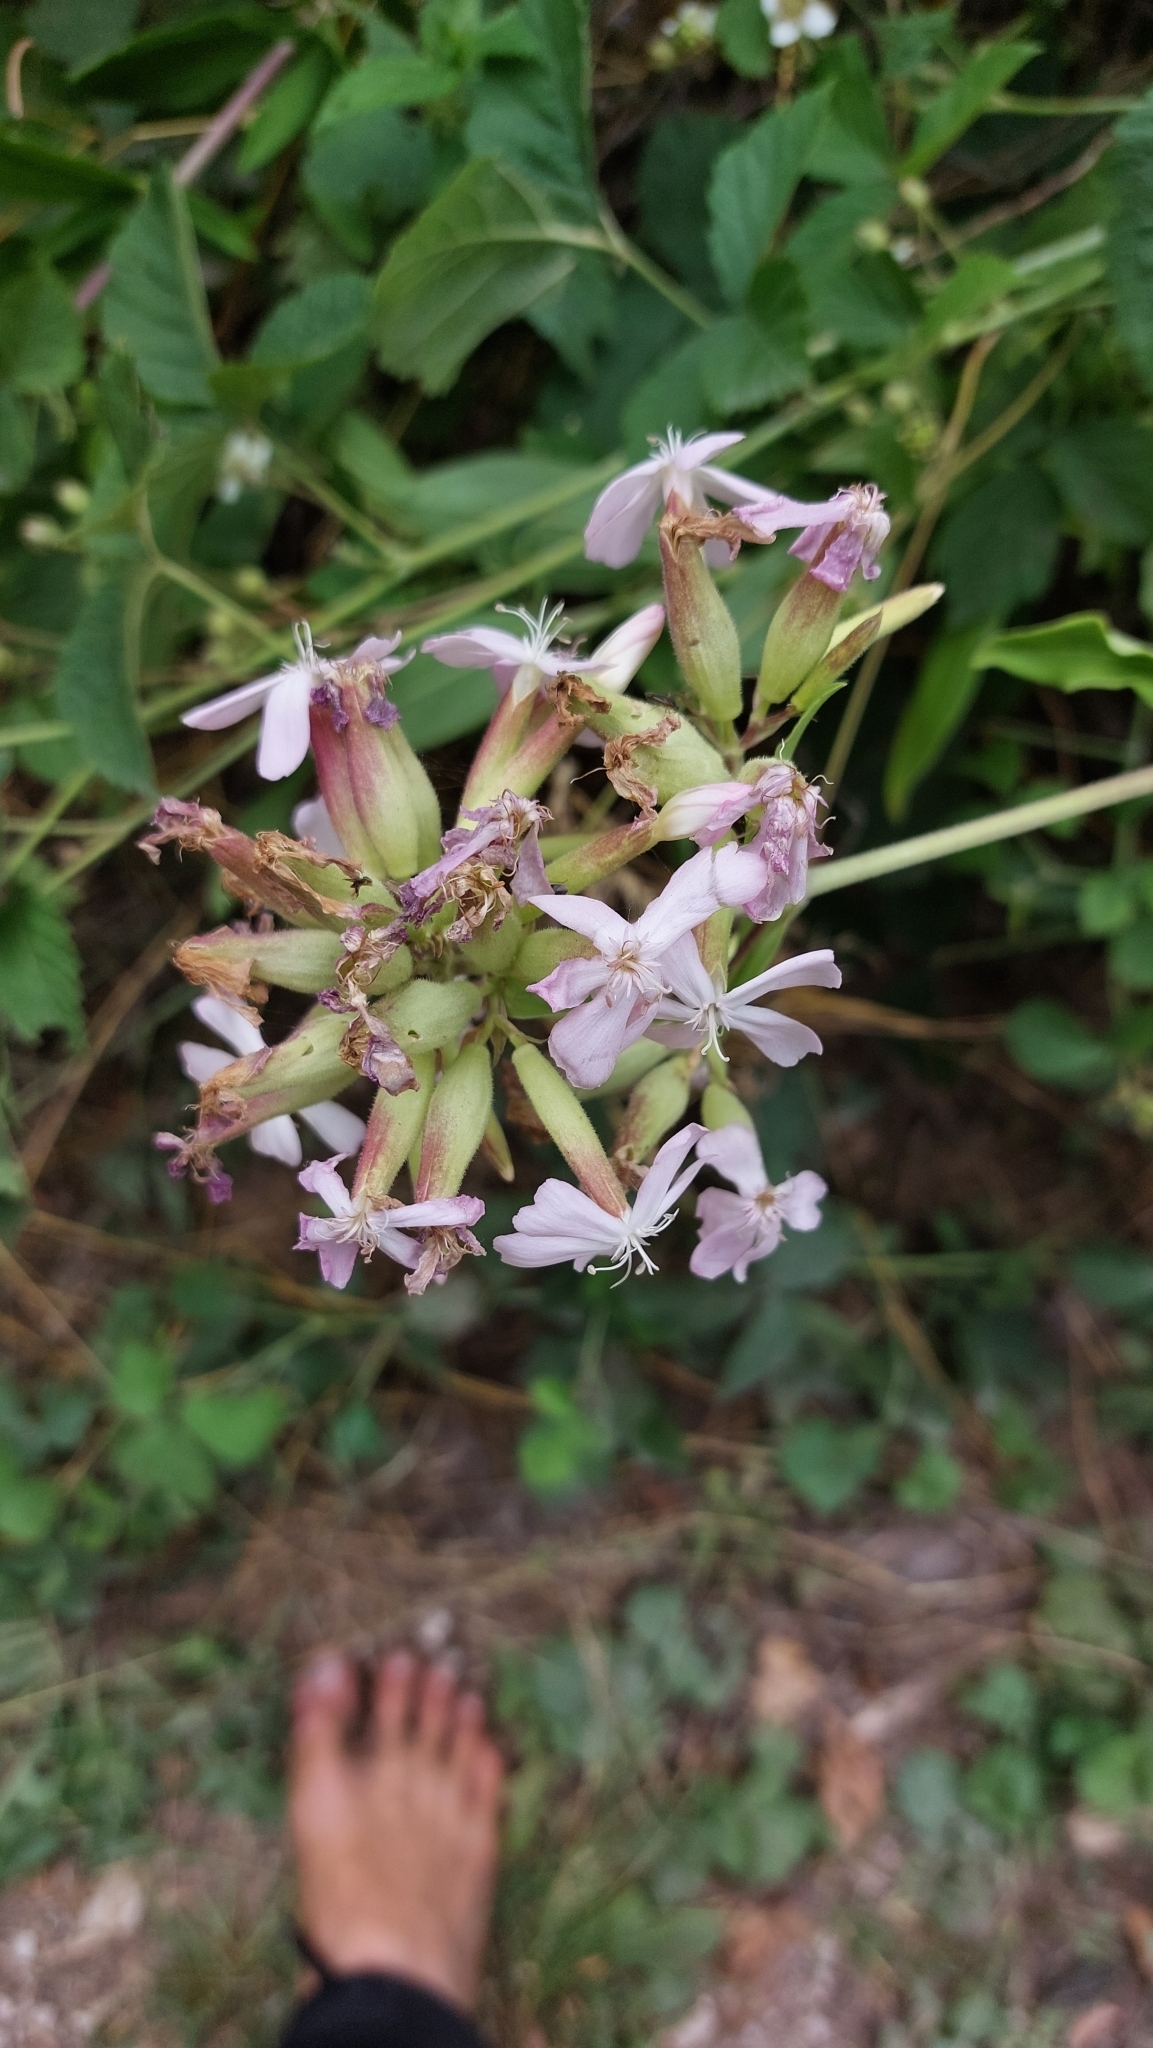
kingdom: Plantae
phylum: Tracheophyta
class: Magnoliopsida
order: Caryophyllales
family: Caryophyllaceae
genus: Saponaria
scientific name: Saponaria officinalis
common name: Soapwort
